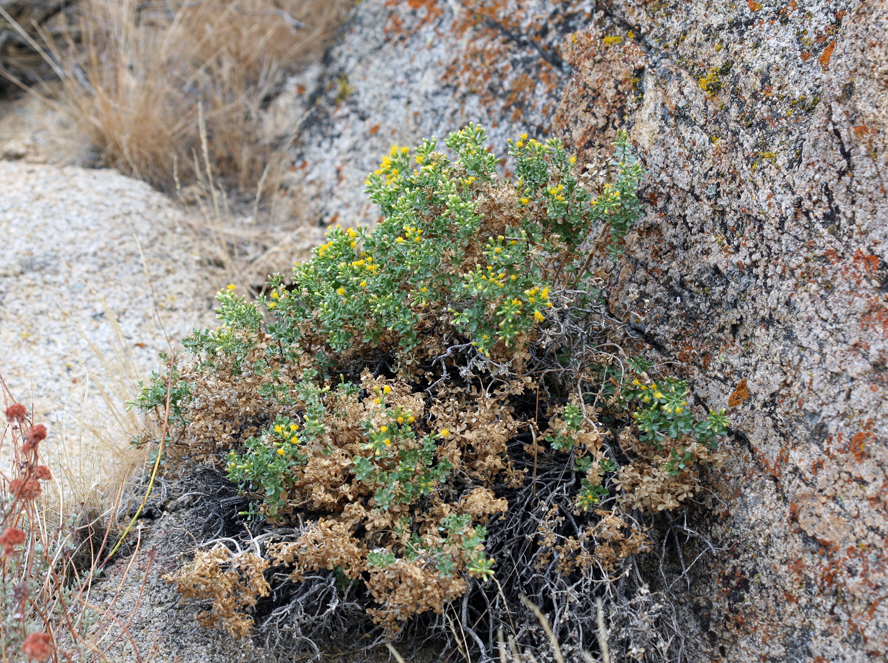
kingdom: Plantae
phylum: Tracheophyta
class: Magnoliopsida
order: Asterales
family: Asteraceae
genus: Ericameria
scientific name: Ericameria cuneata
